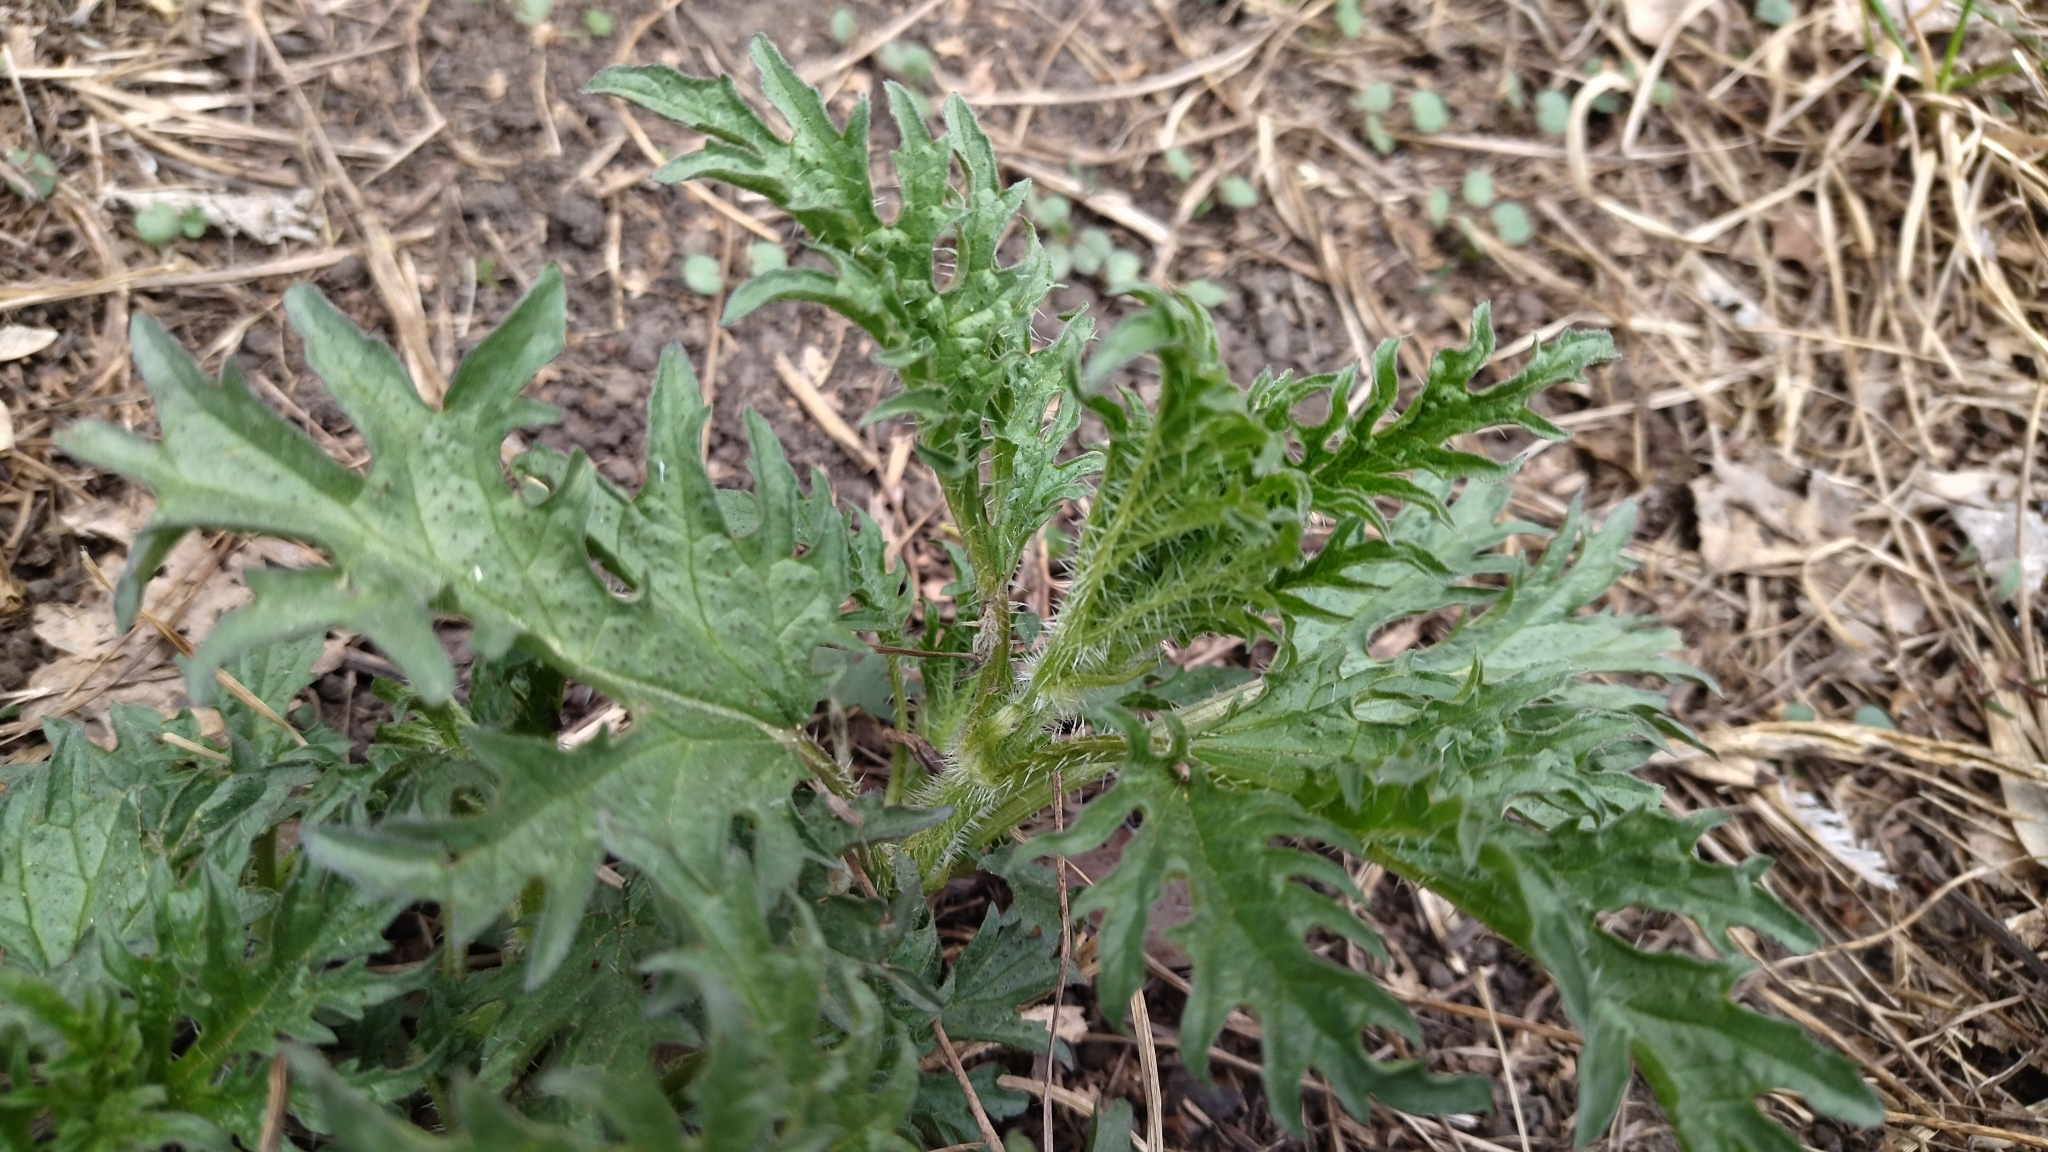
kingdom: Plantae
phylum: Tracheophyta
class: Magnoliopsida
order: Rosales
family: Urticaceae
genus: Urtica
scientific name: Urtica cannabina
